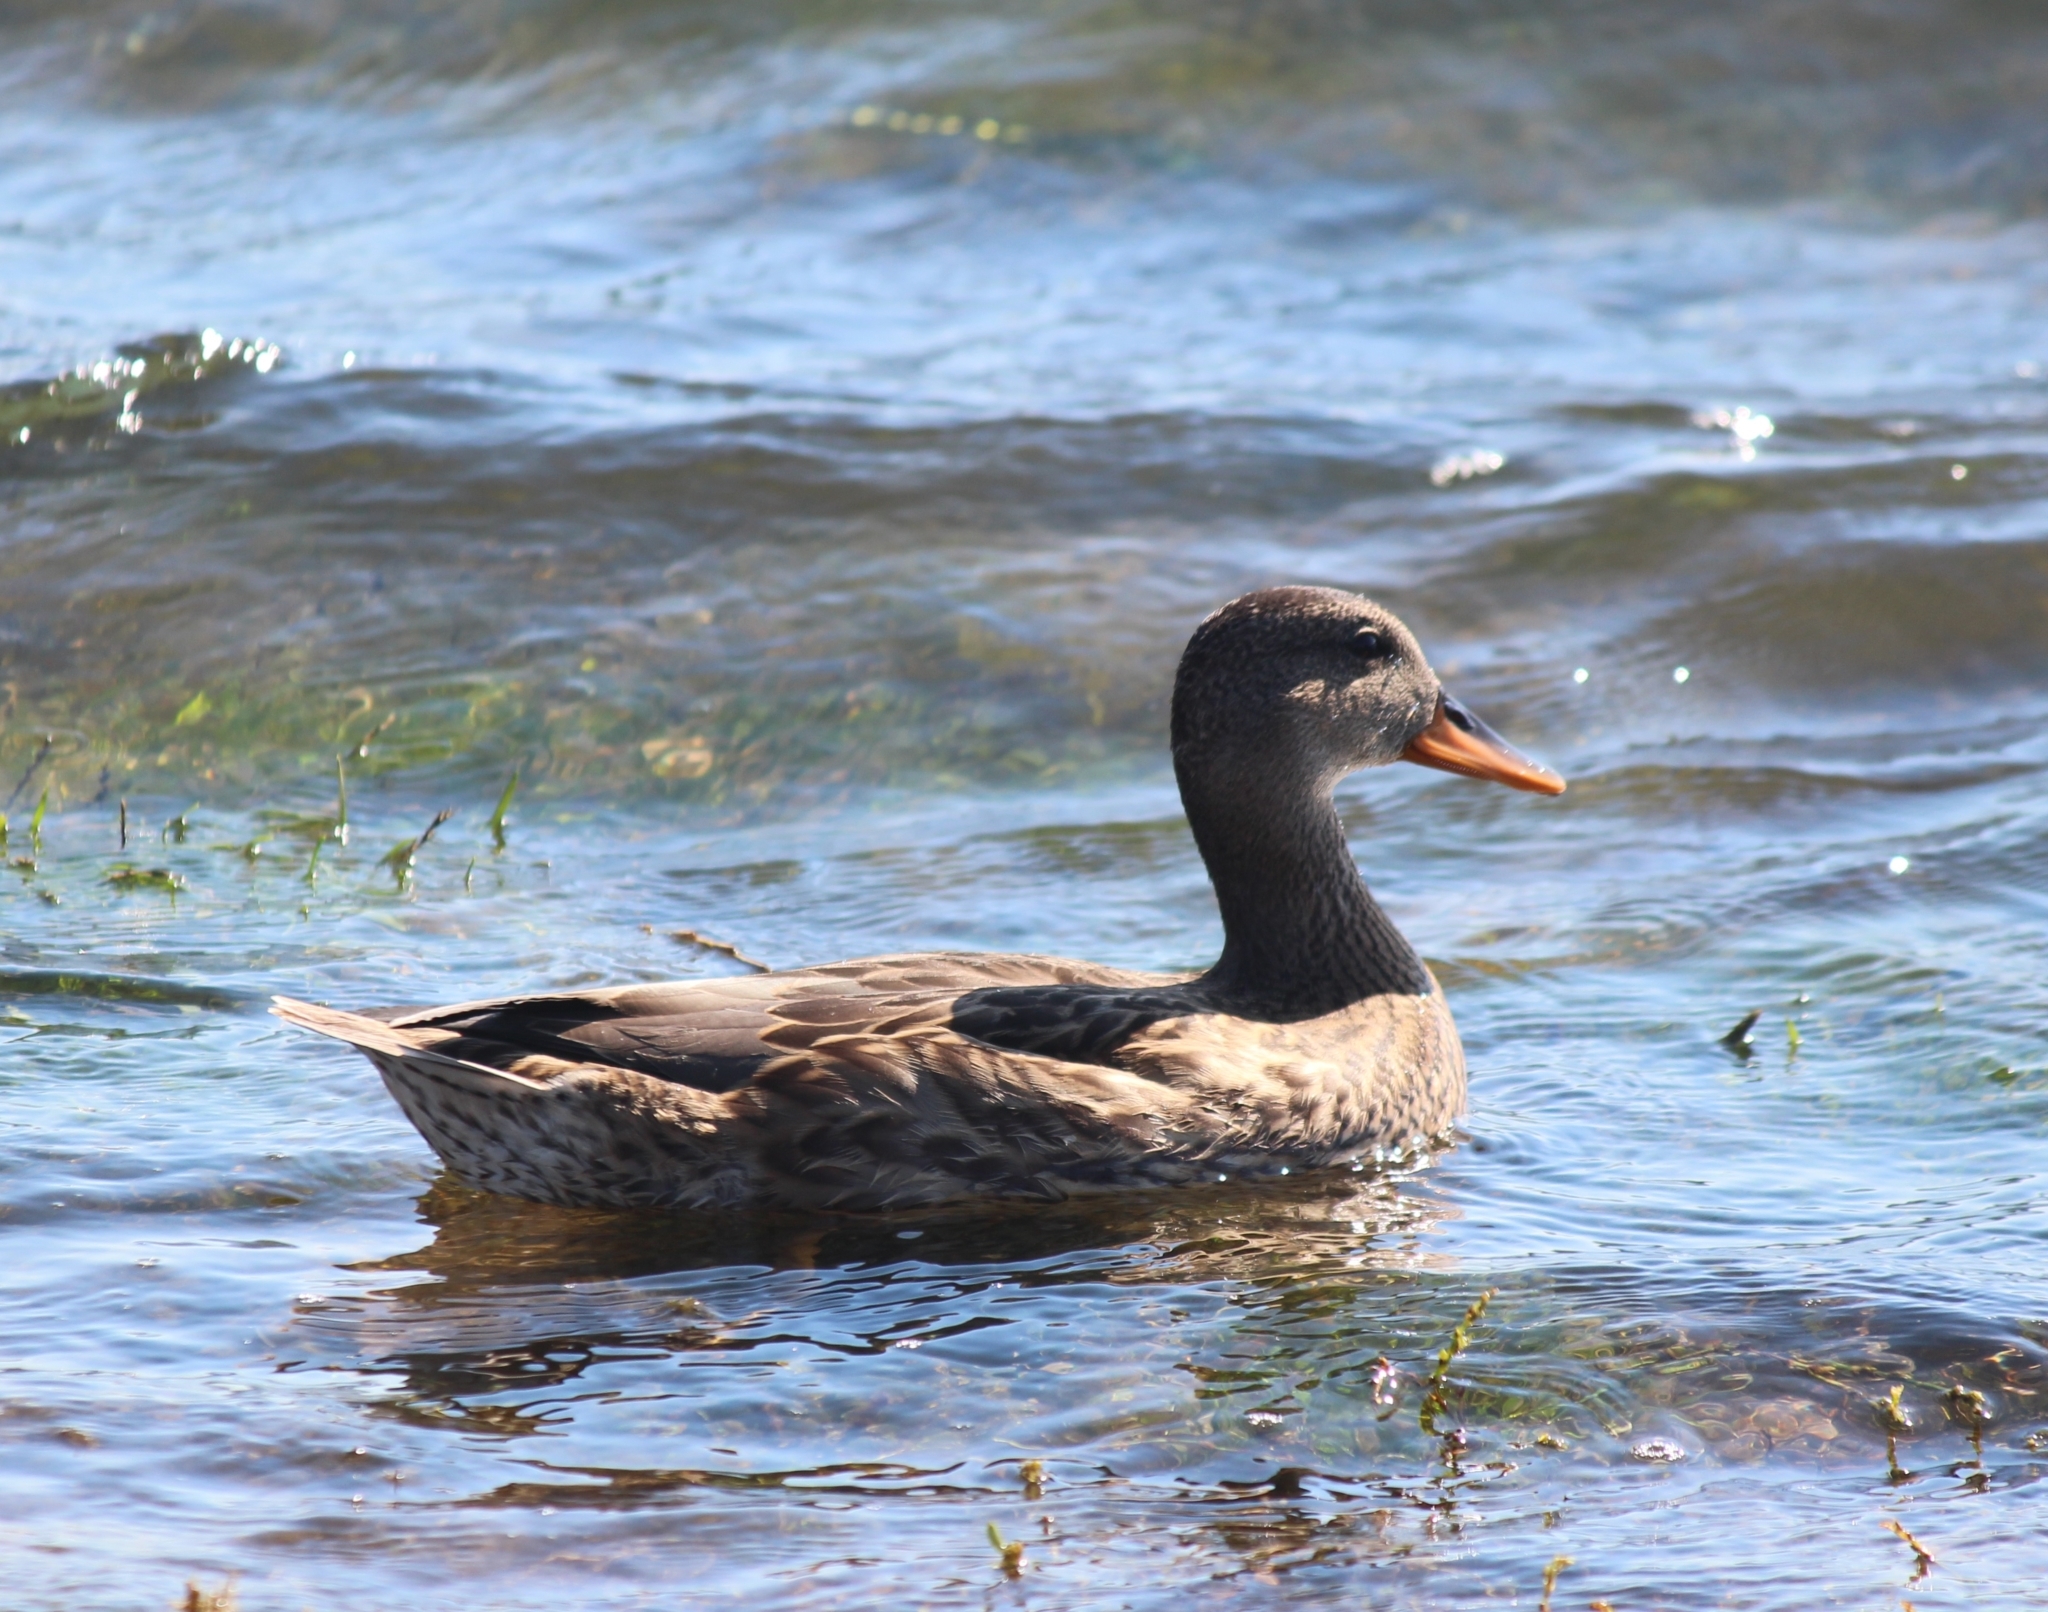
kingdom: Animalia
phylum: Chordata
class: Aves
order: Anseriformes
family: Anatidae
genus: Mareca
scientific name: Mareca strepera
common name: Gadwall
